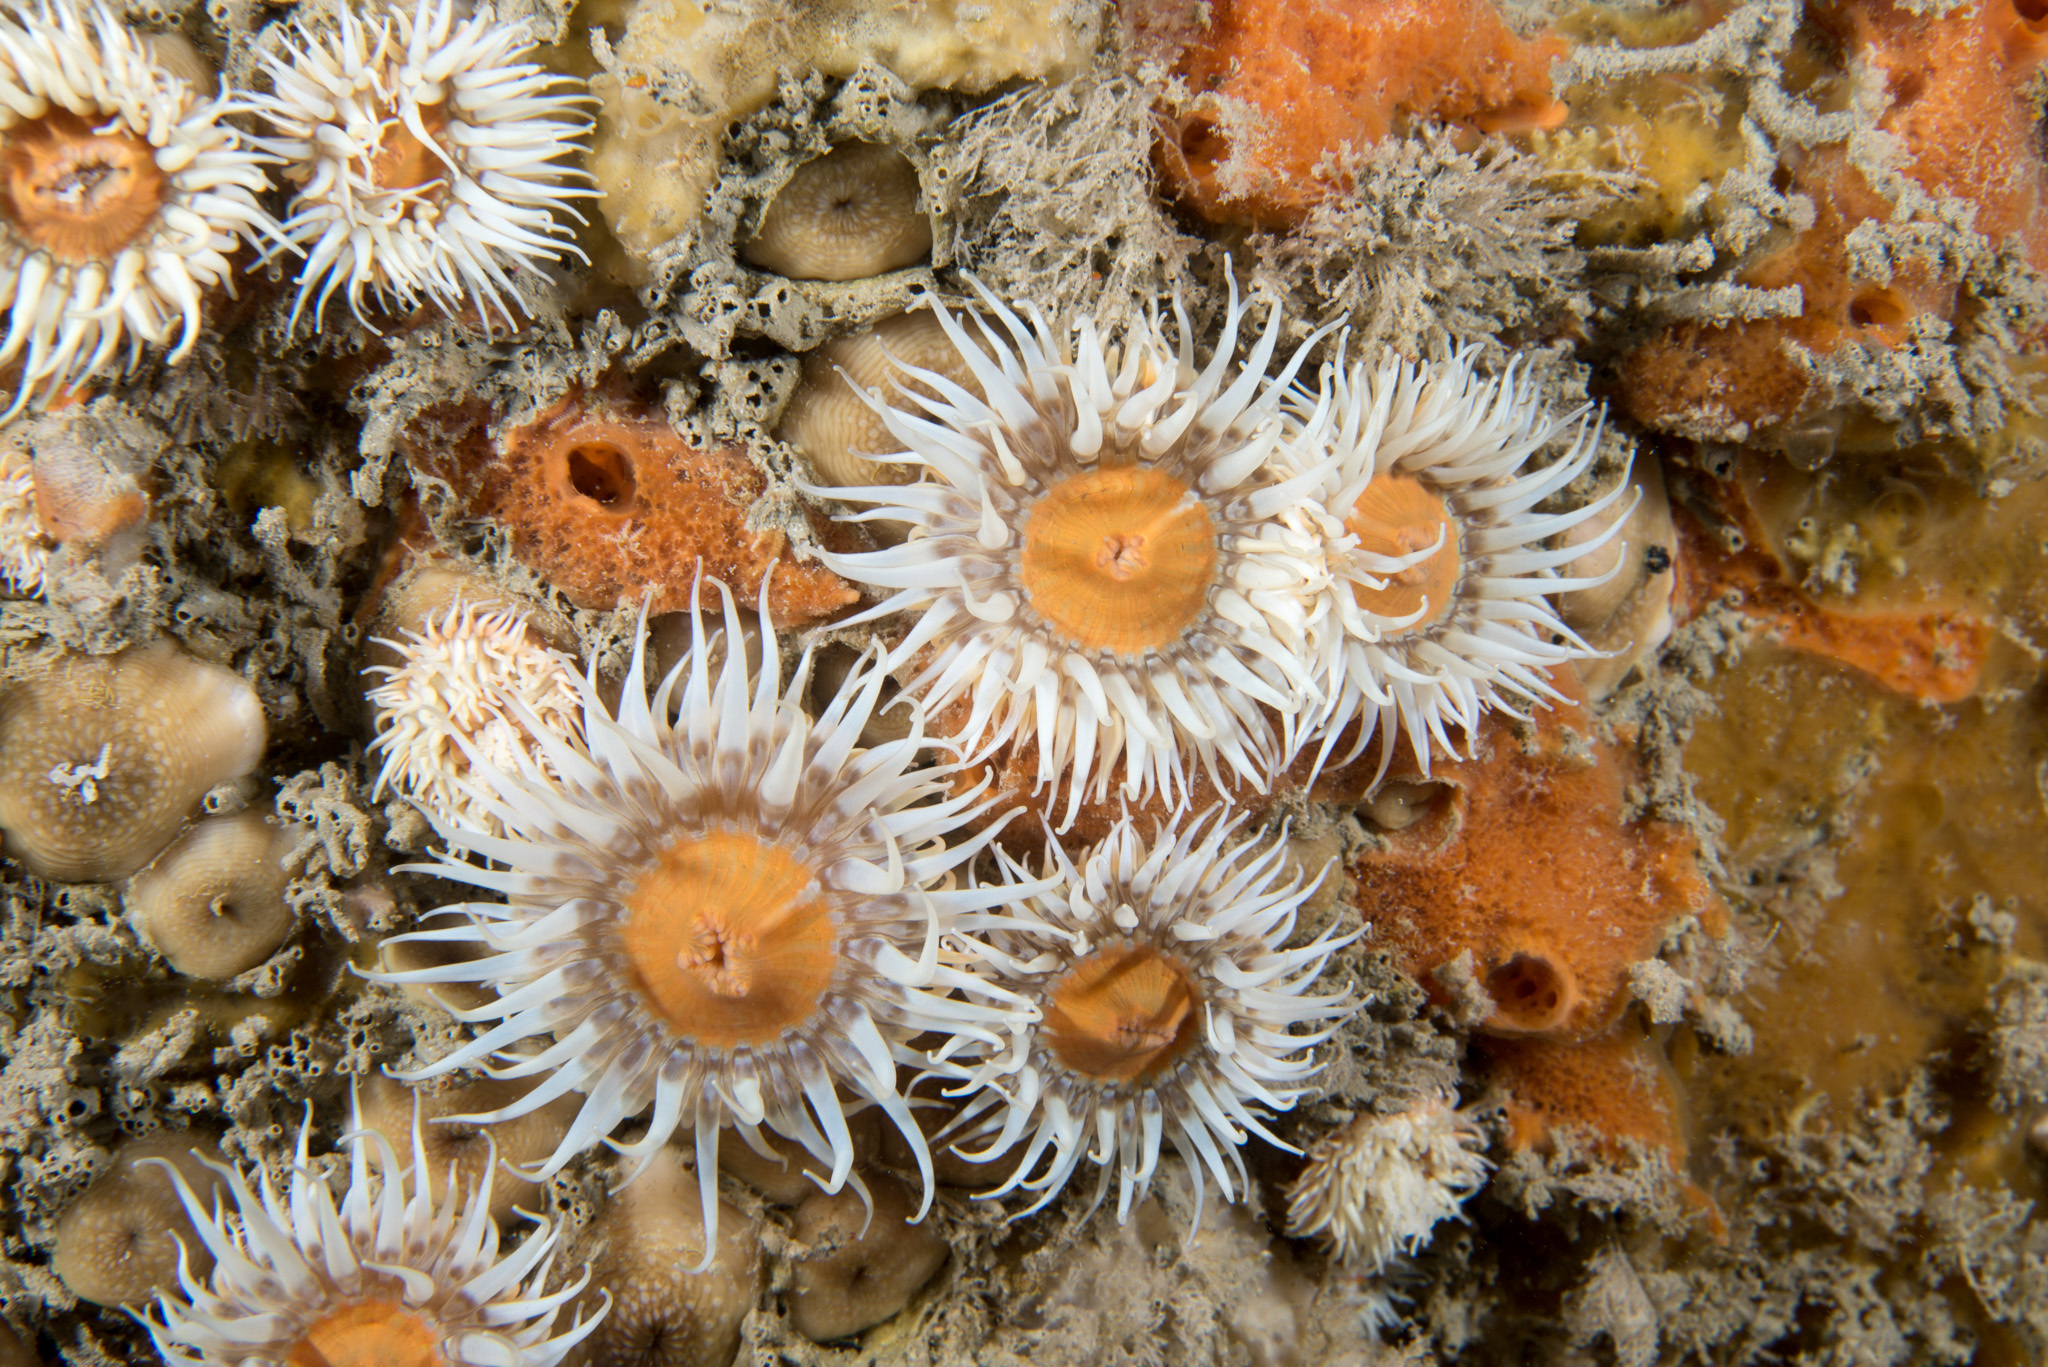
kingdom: Animalia
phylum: Cnidaria
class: Anthozoa
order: Actiniaria
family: Sagartiidae
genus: Cylista
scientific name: Cylista elegans
